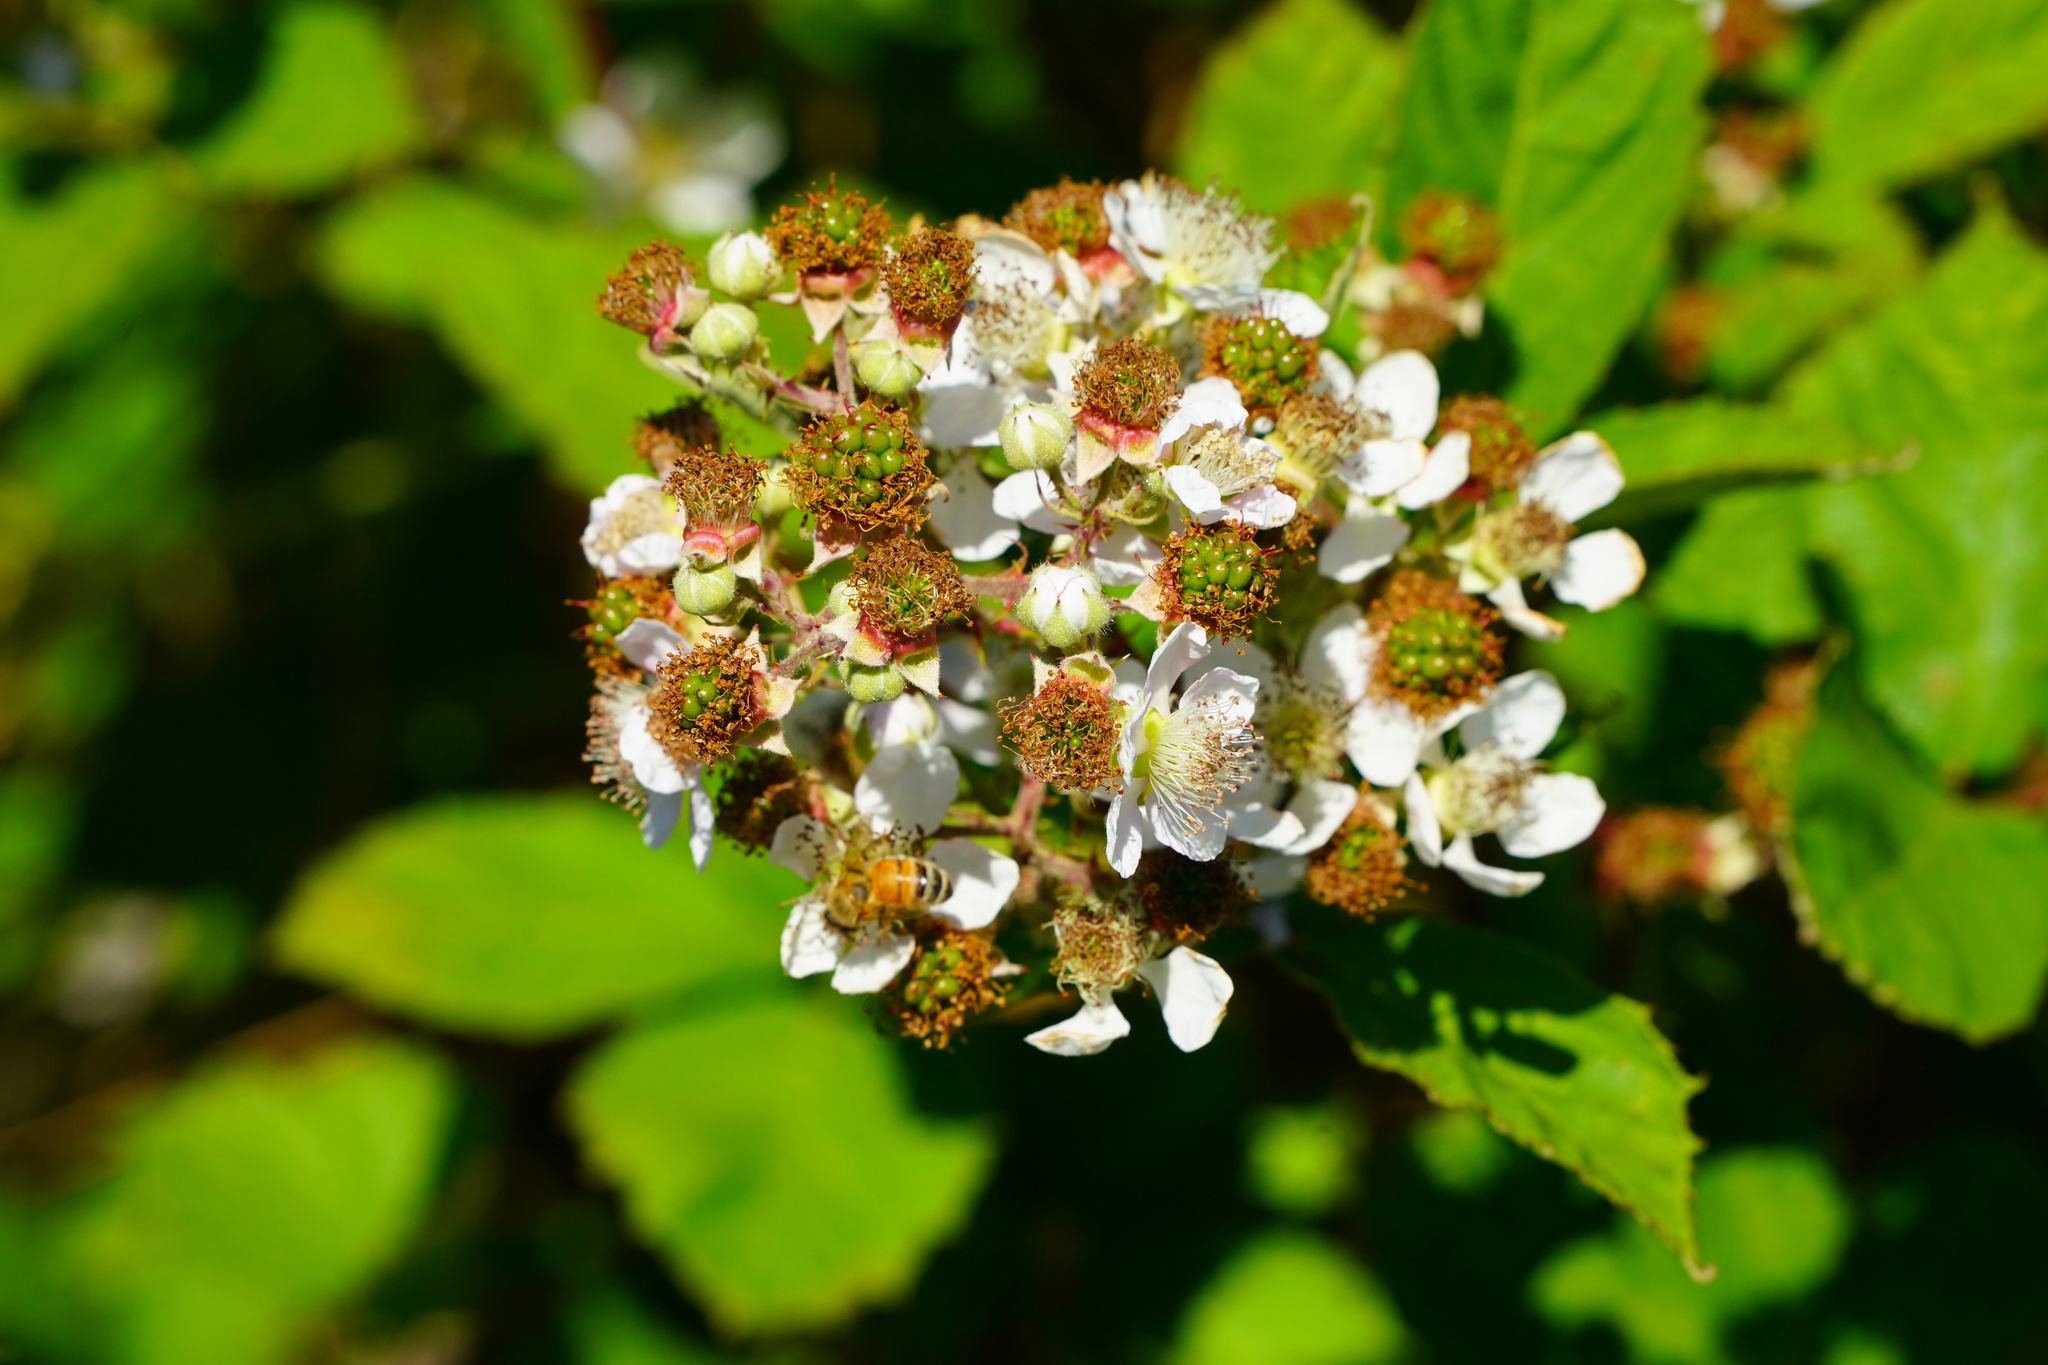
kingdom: Plantae
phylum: Tracheophyta
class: Magnoliopsida
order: Rosales
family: Rosaceae
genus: Rubus
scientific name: Rubus armeniacus
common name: Himalayan blackberry
